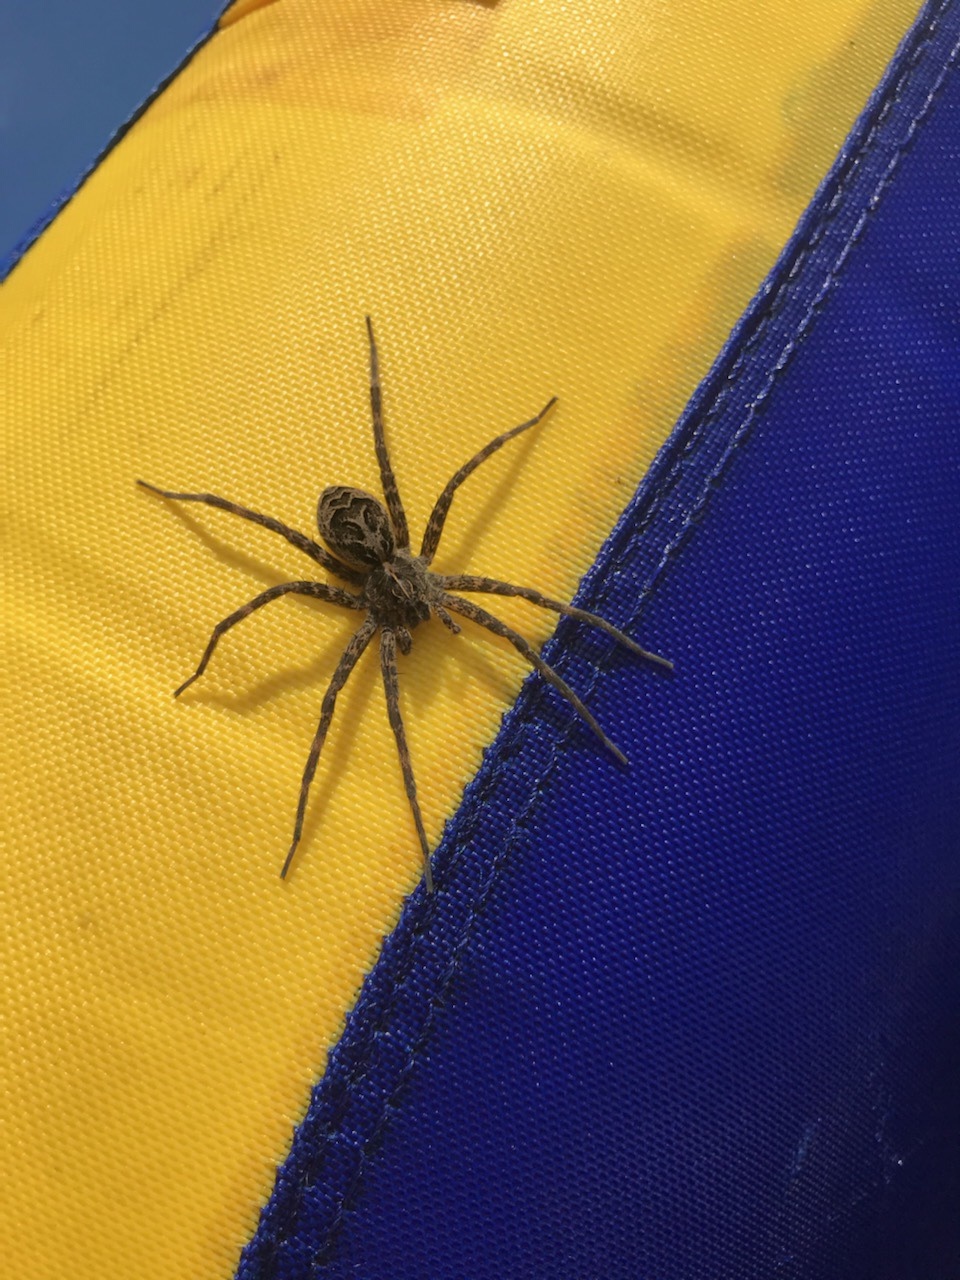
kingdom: Animalia
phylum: Arthropoda
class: Arachnida
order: Araneae
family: Pisauridae
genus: Dolomedes
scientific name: Dolomedes scriptus
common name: Striped fishing spider
